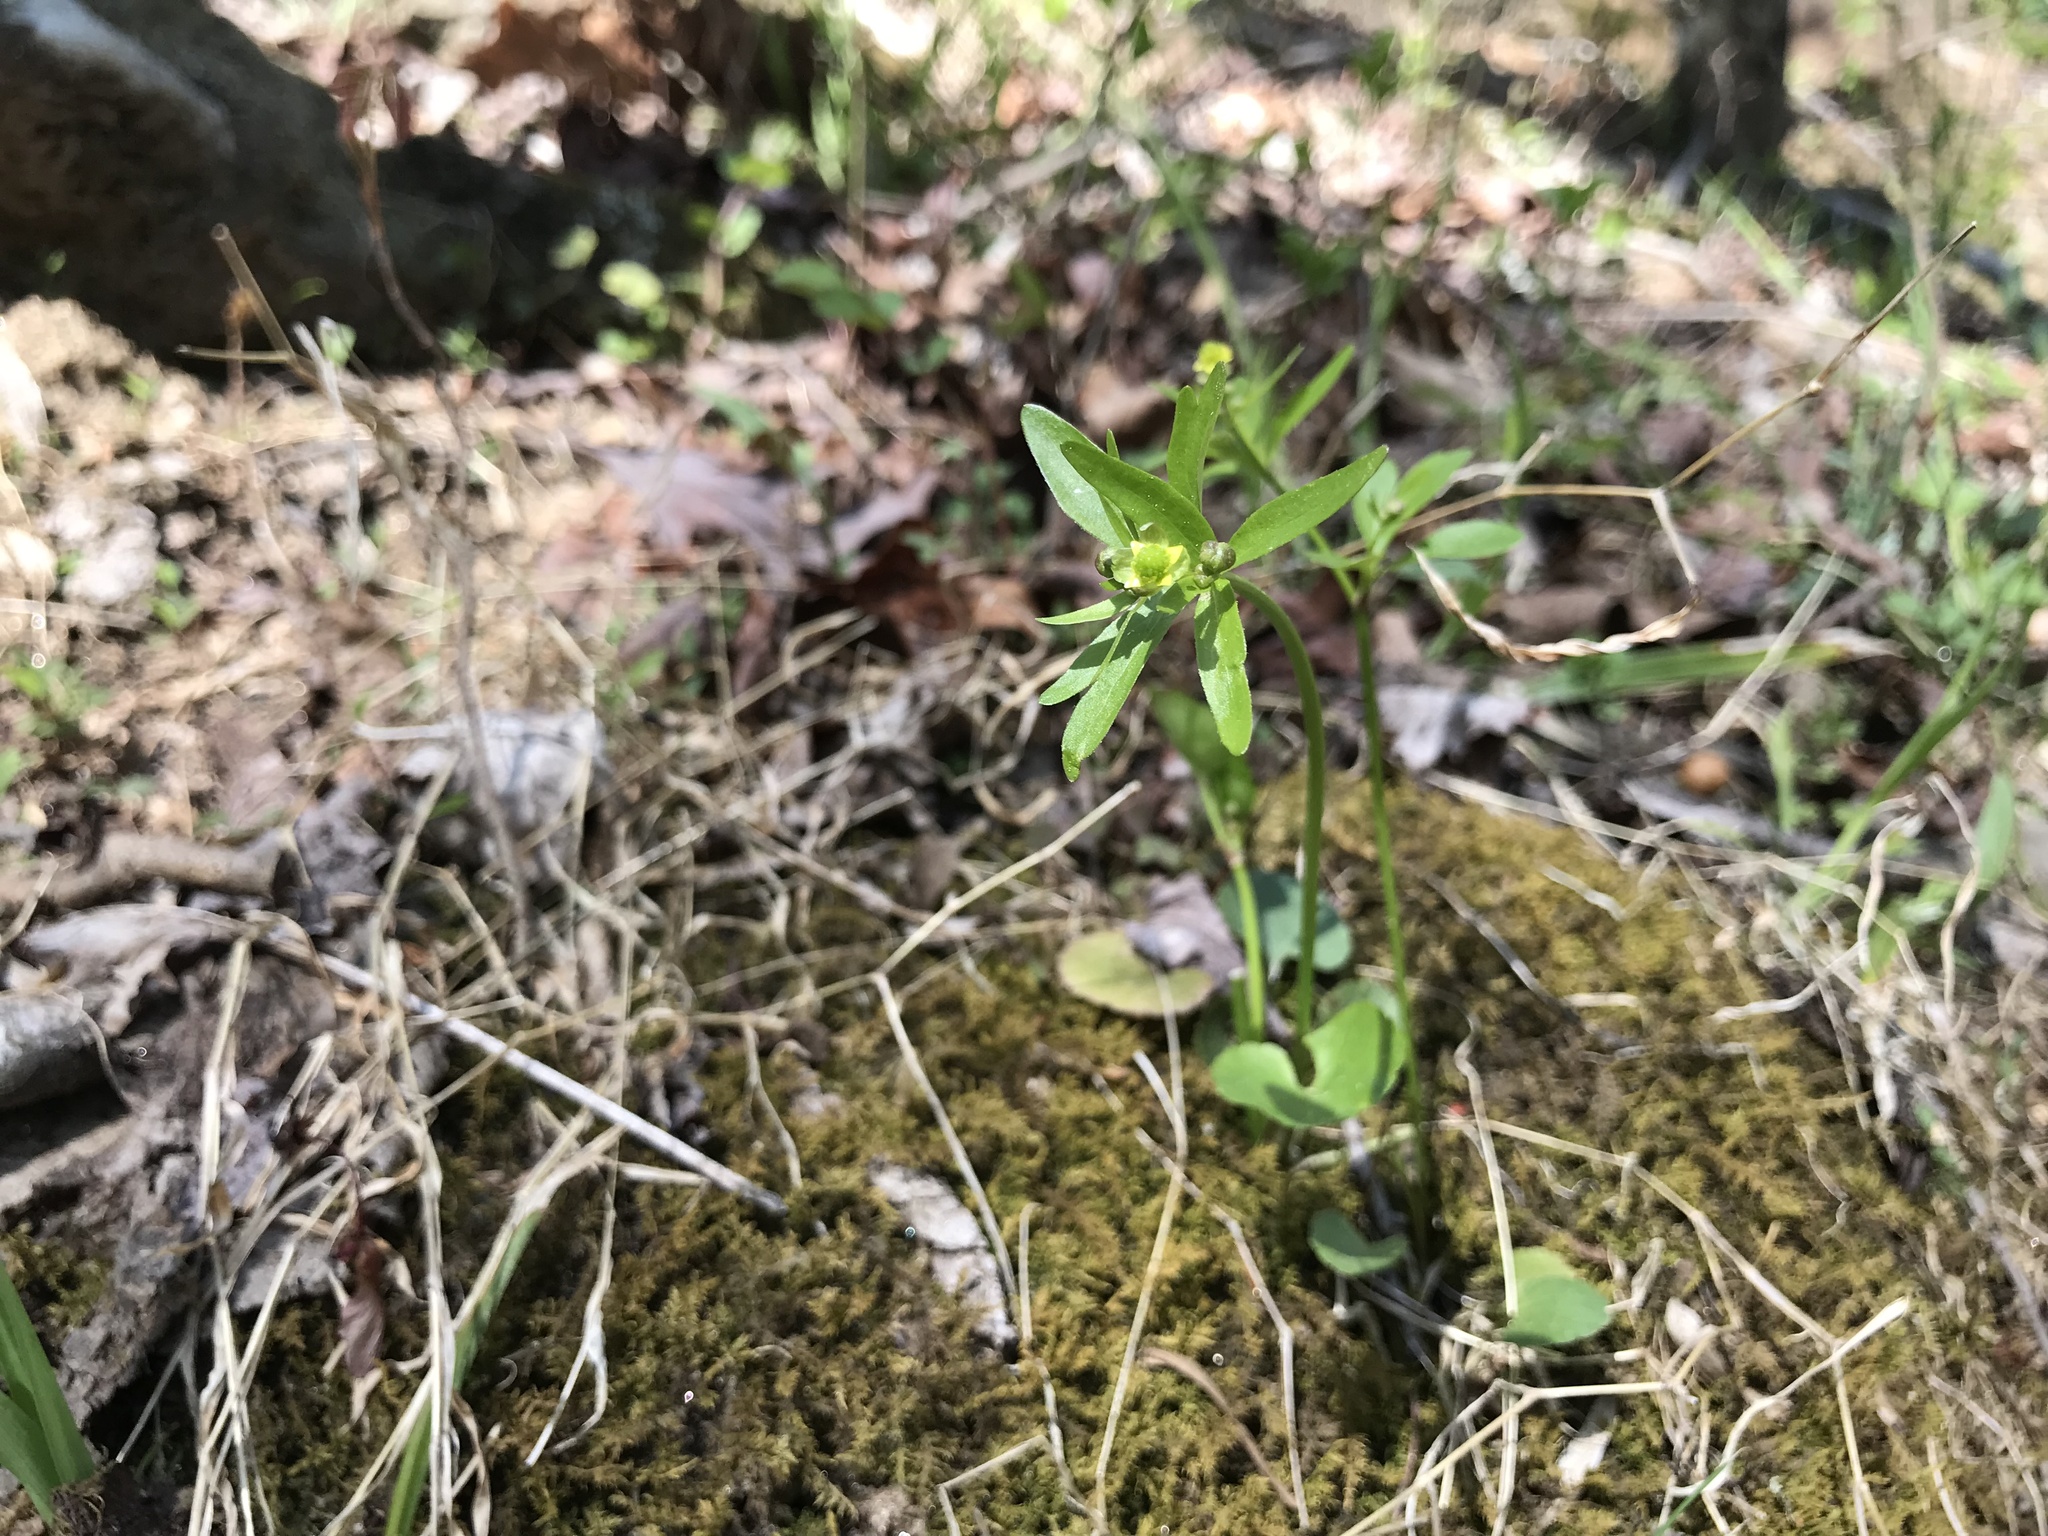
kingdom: Plantae
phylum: Tracheophyta
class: Magnoliopsida
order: Ranunculales
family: Ranunculaceae
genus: Ranunculus
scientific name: Ranunculus abortivus
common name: Early wood buttercup
